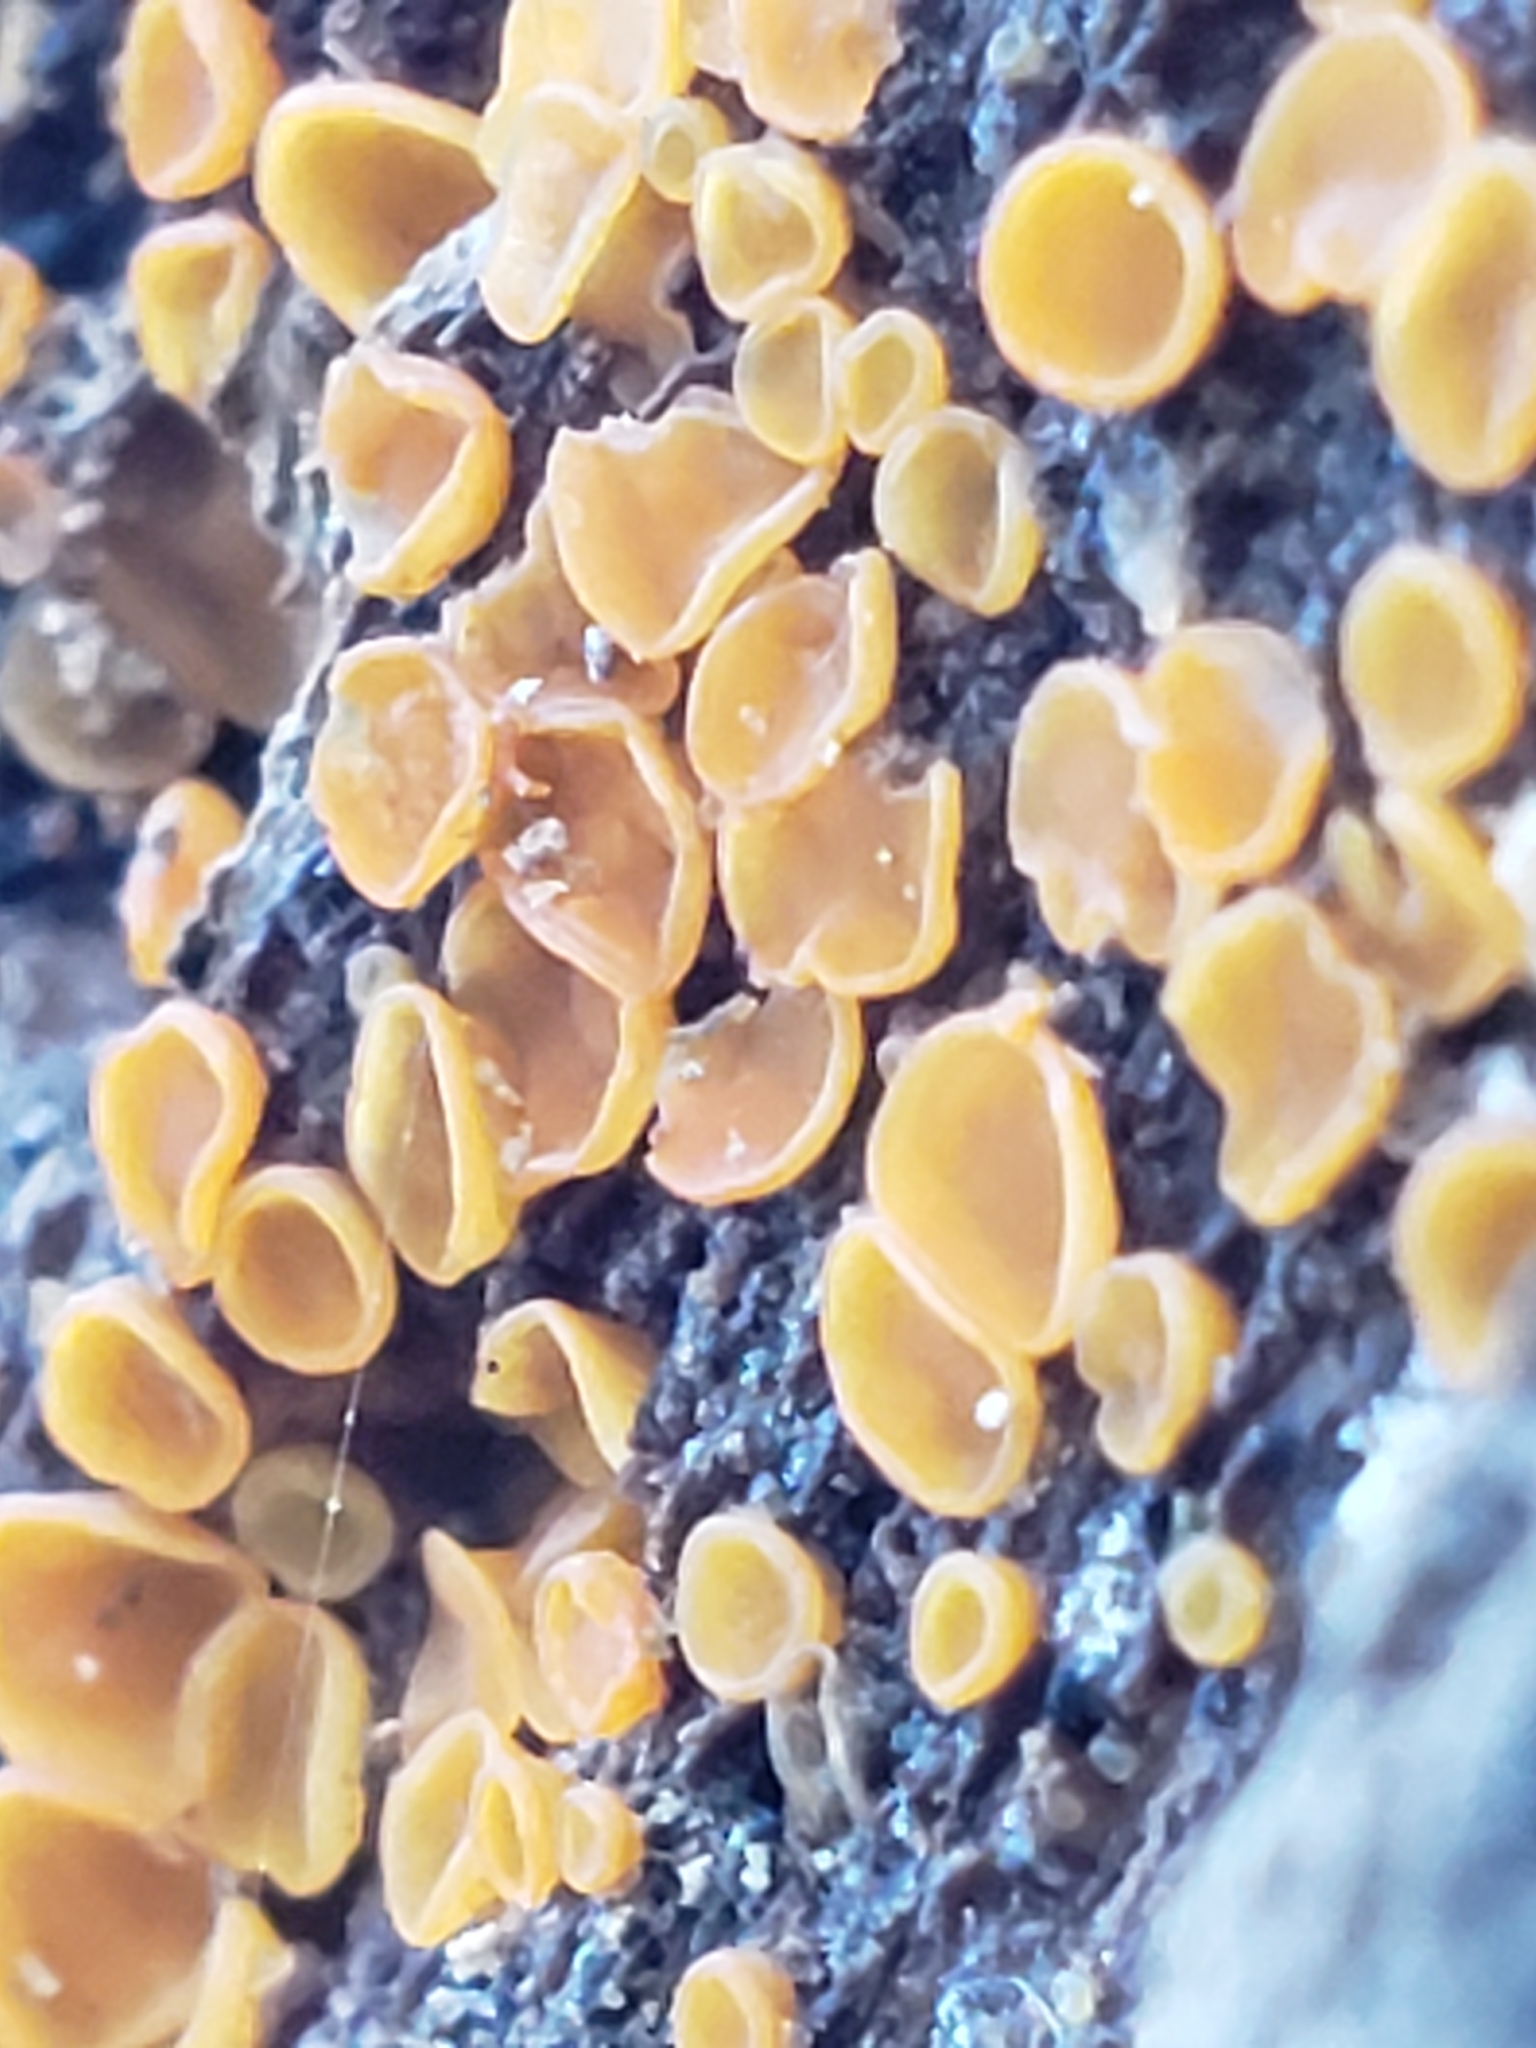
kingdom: Fungi
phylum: Ascomycota
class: Leotiomycetes
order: Helotiales
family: Pezizellaceae
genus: Calycina
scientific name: Calycina citrina
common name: Yellow fairy cups
